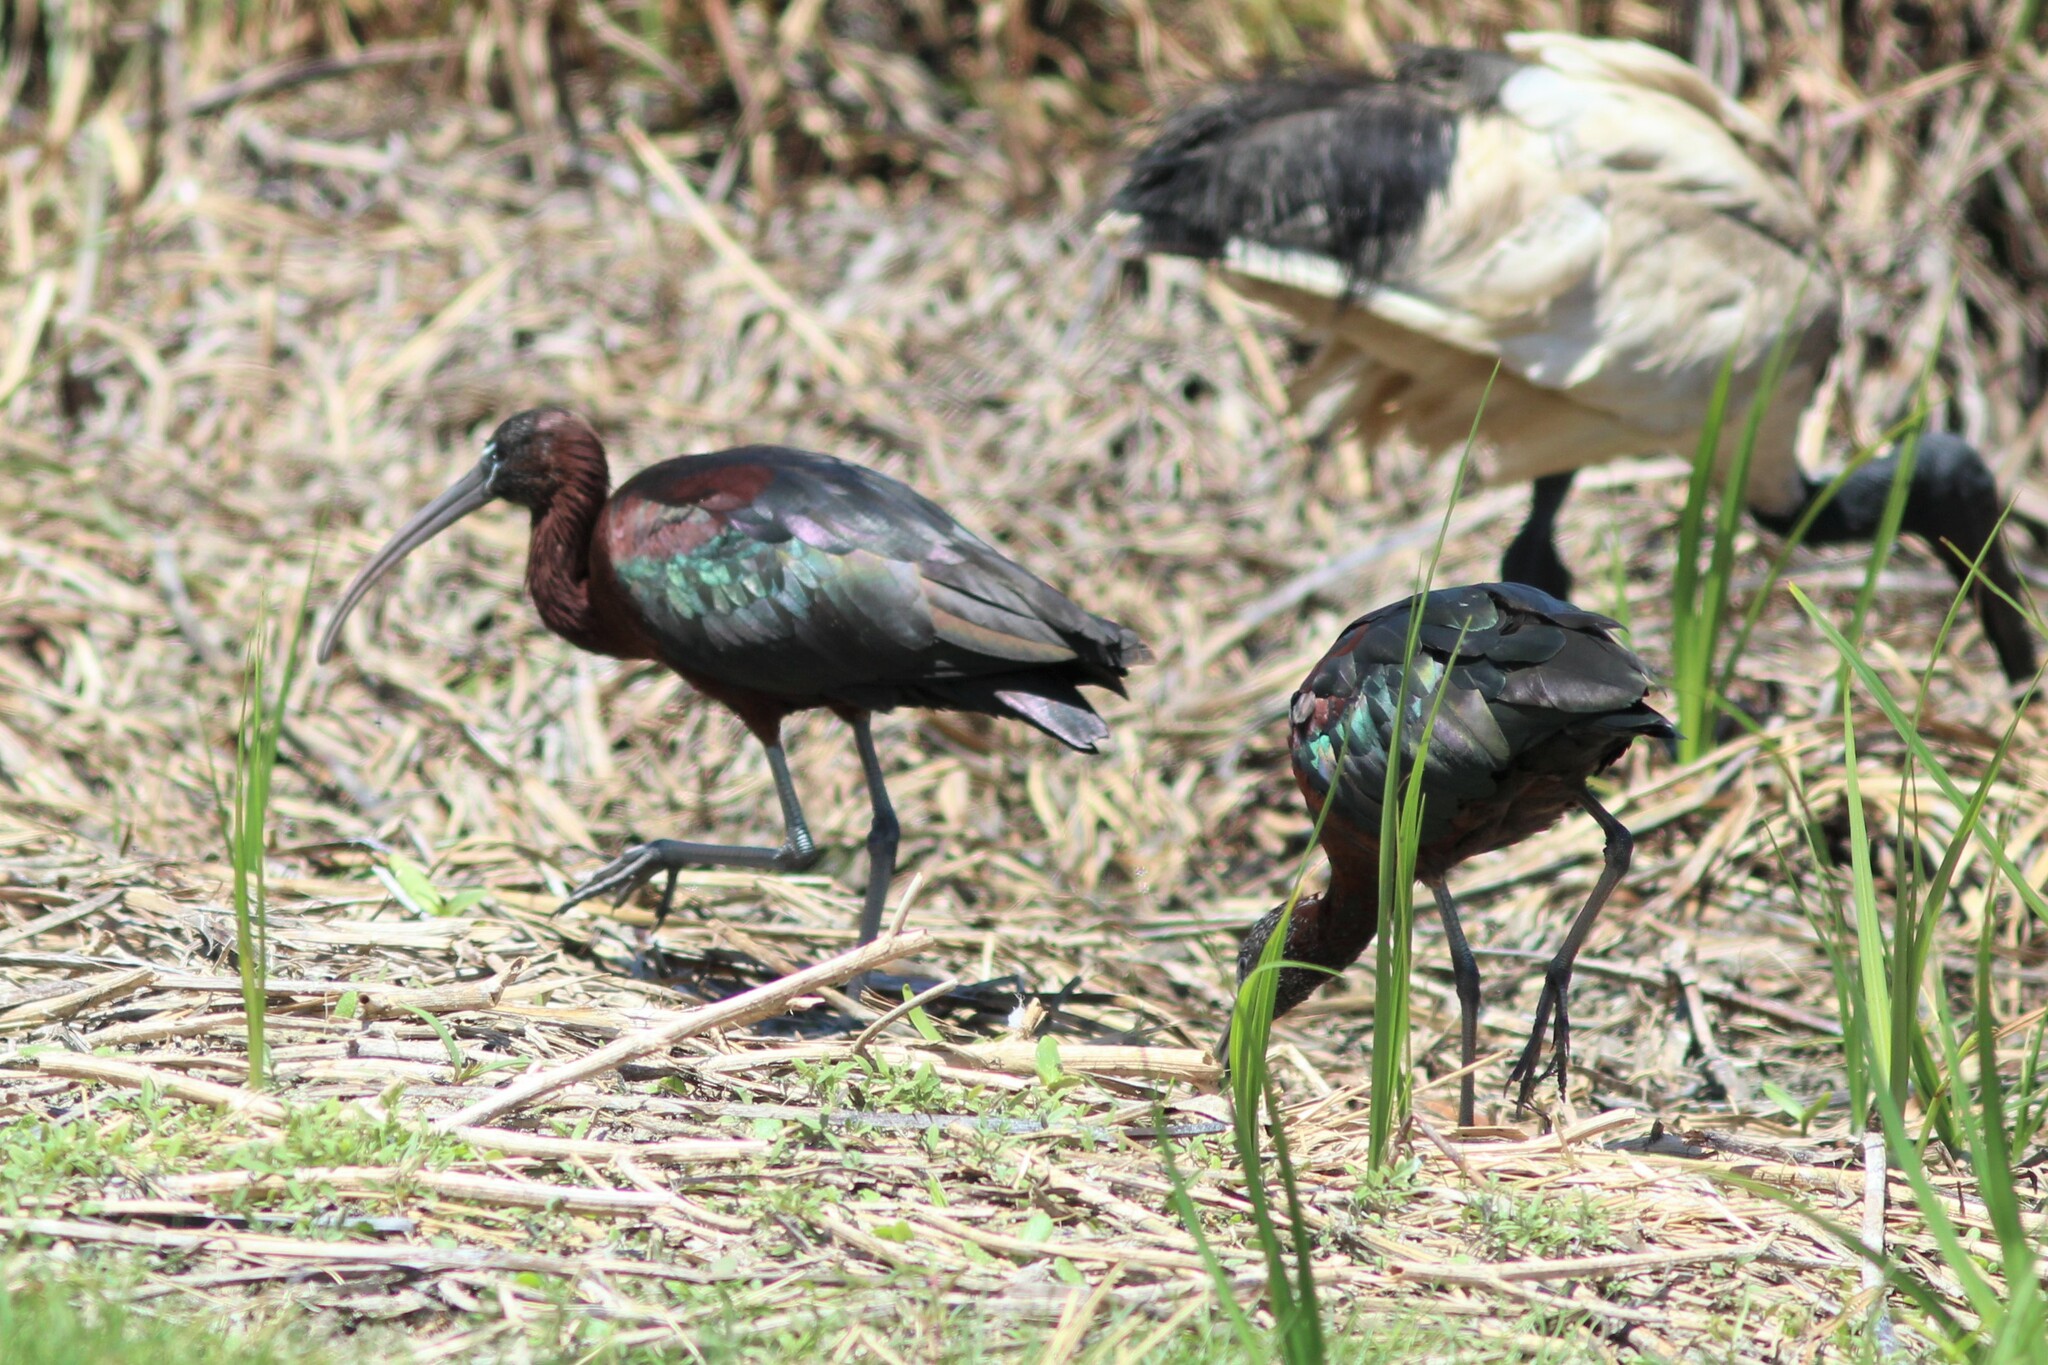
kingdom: Animalia
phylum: Chordata
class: Aves
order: Pelecaniformes
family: Threskiornithidae
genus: Plegadis
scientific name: Plegadis falcinellus
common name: Glossy ibis
